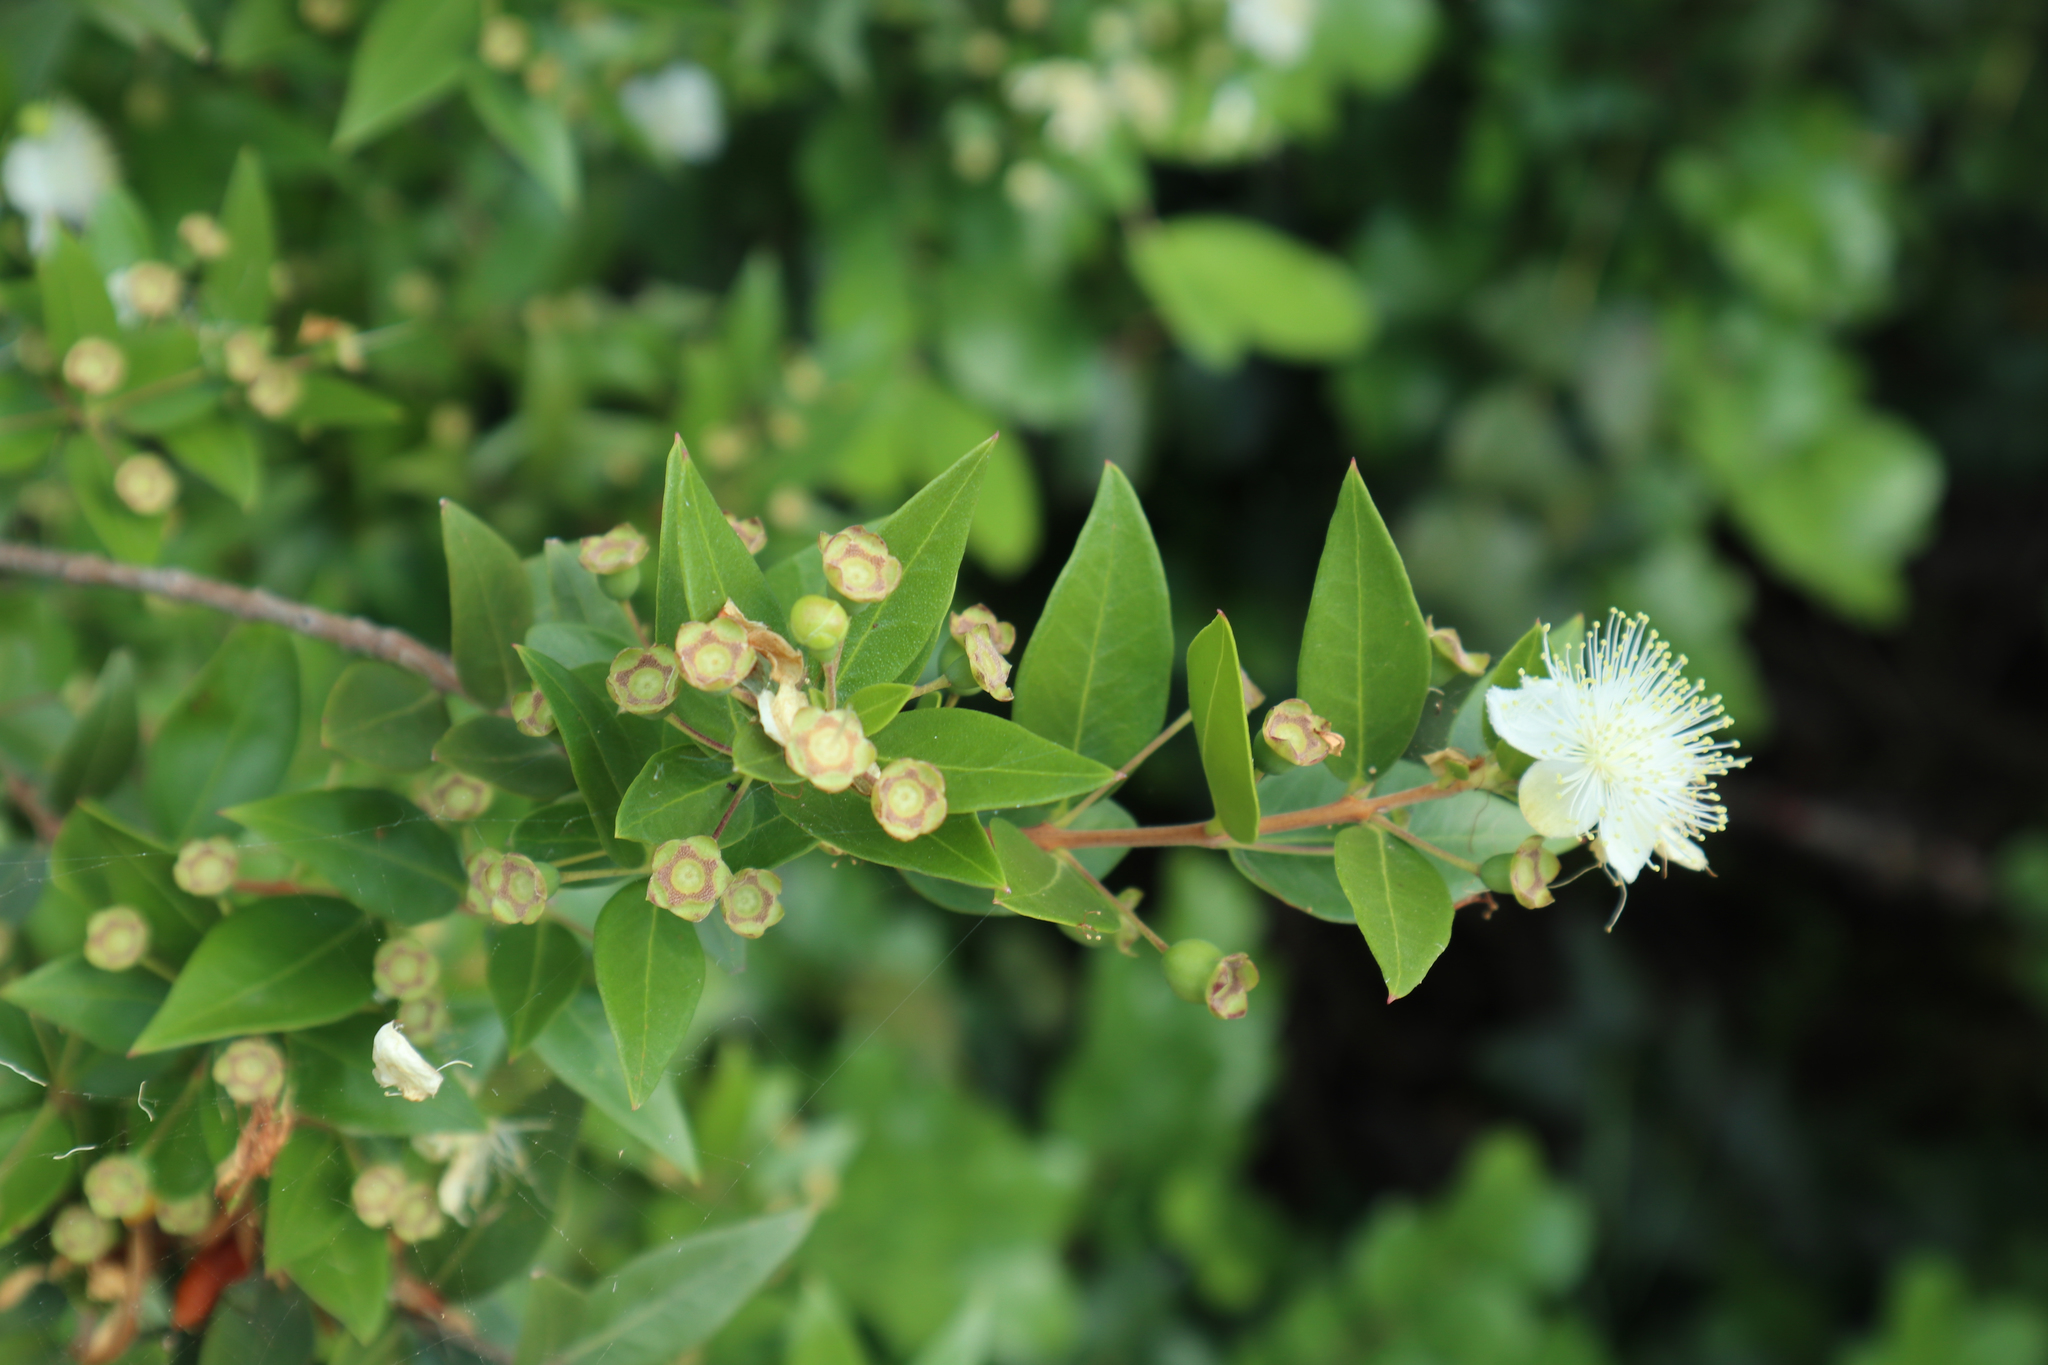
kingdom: Plantae
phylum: Tracheophyta
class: Magnoliopsida
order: Myrtales
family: Myrtaceae
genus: Myrtus
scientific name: Myrtus communis
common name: Myrtle
